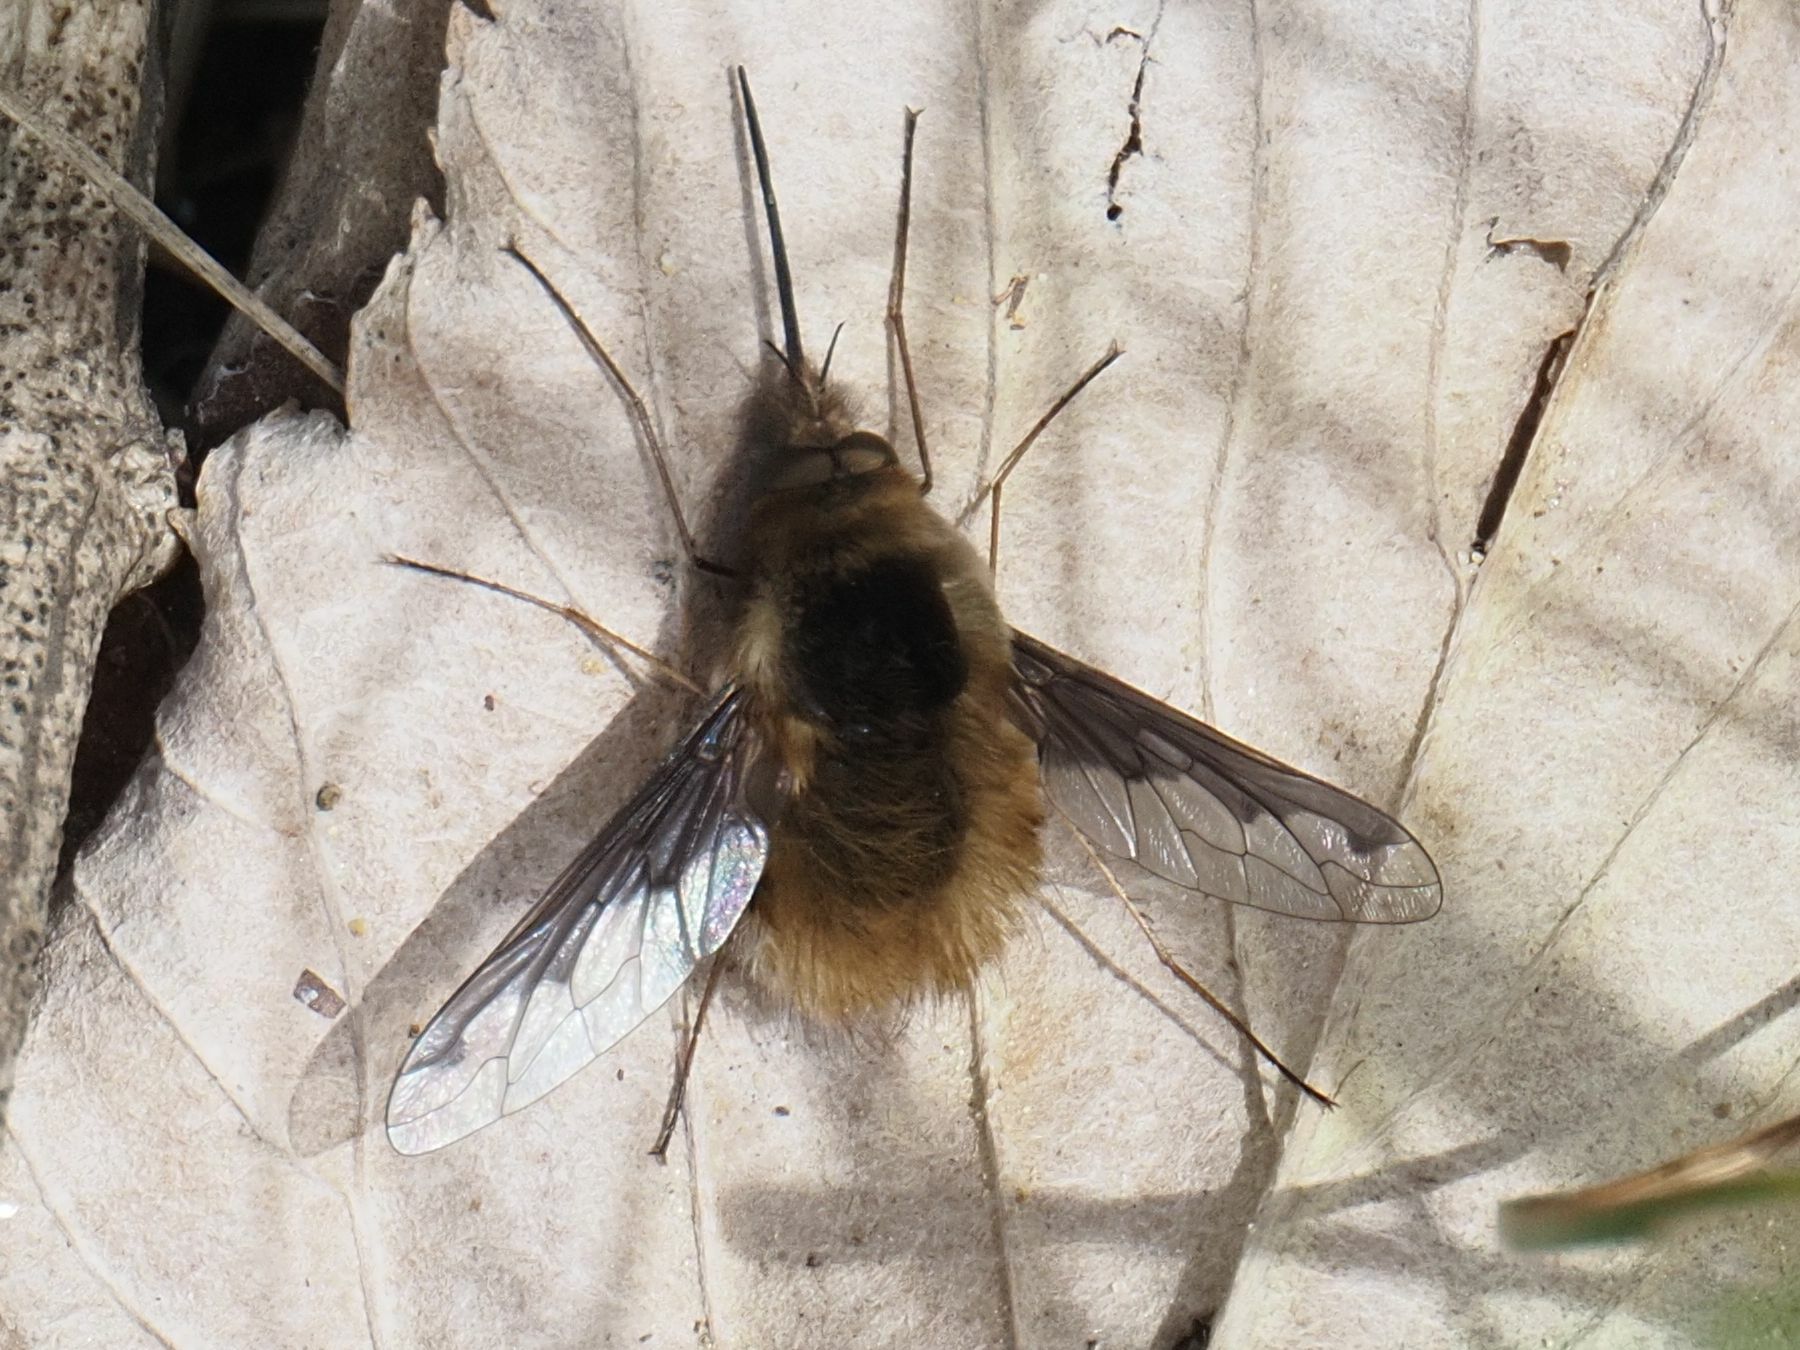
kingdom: Animalia
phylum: Arthropoda
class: Insecta
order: Diptera
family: Bombyliidae
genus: Bombylius
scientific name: Bombylius major
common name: Bee fly
